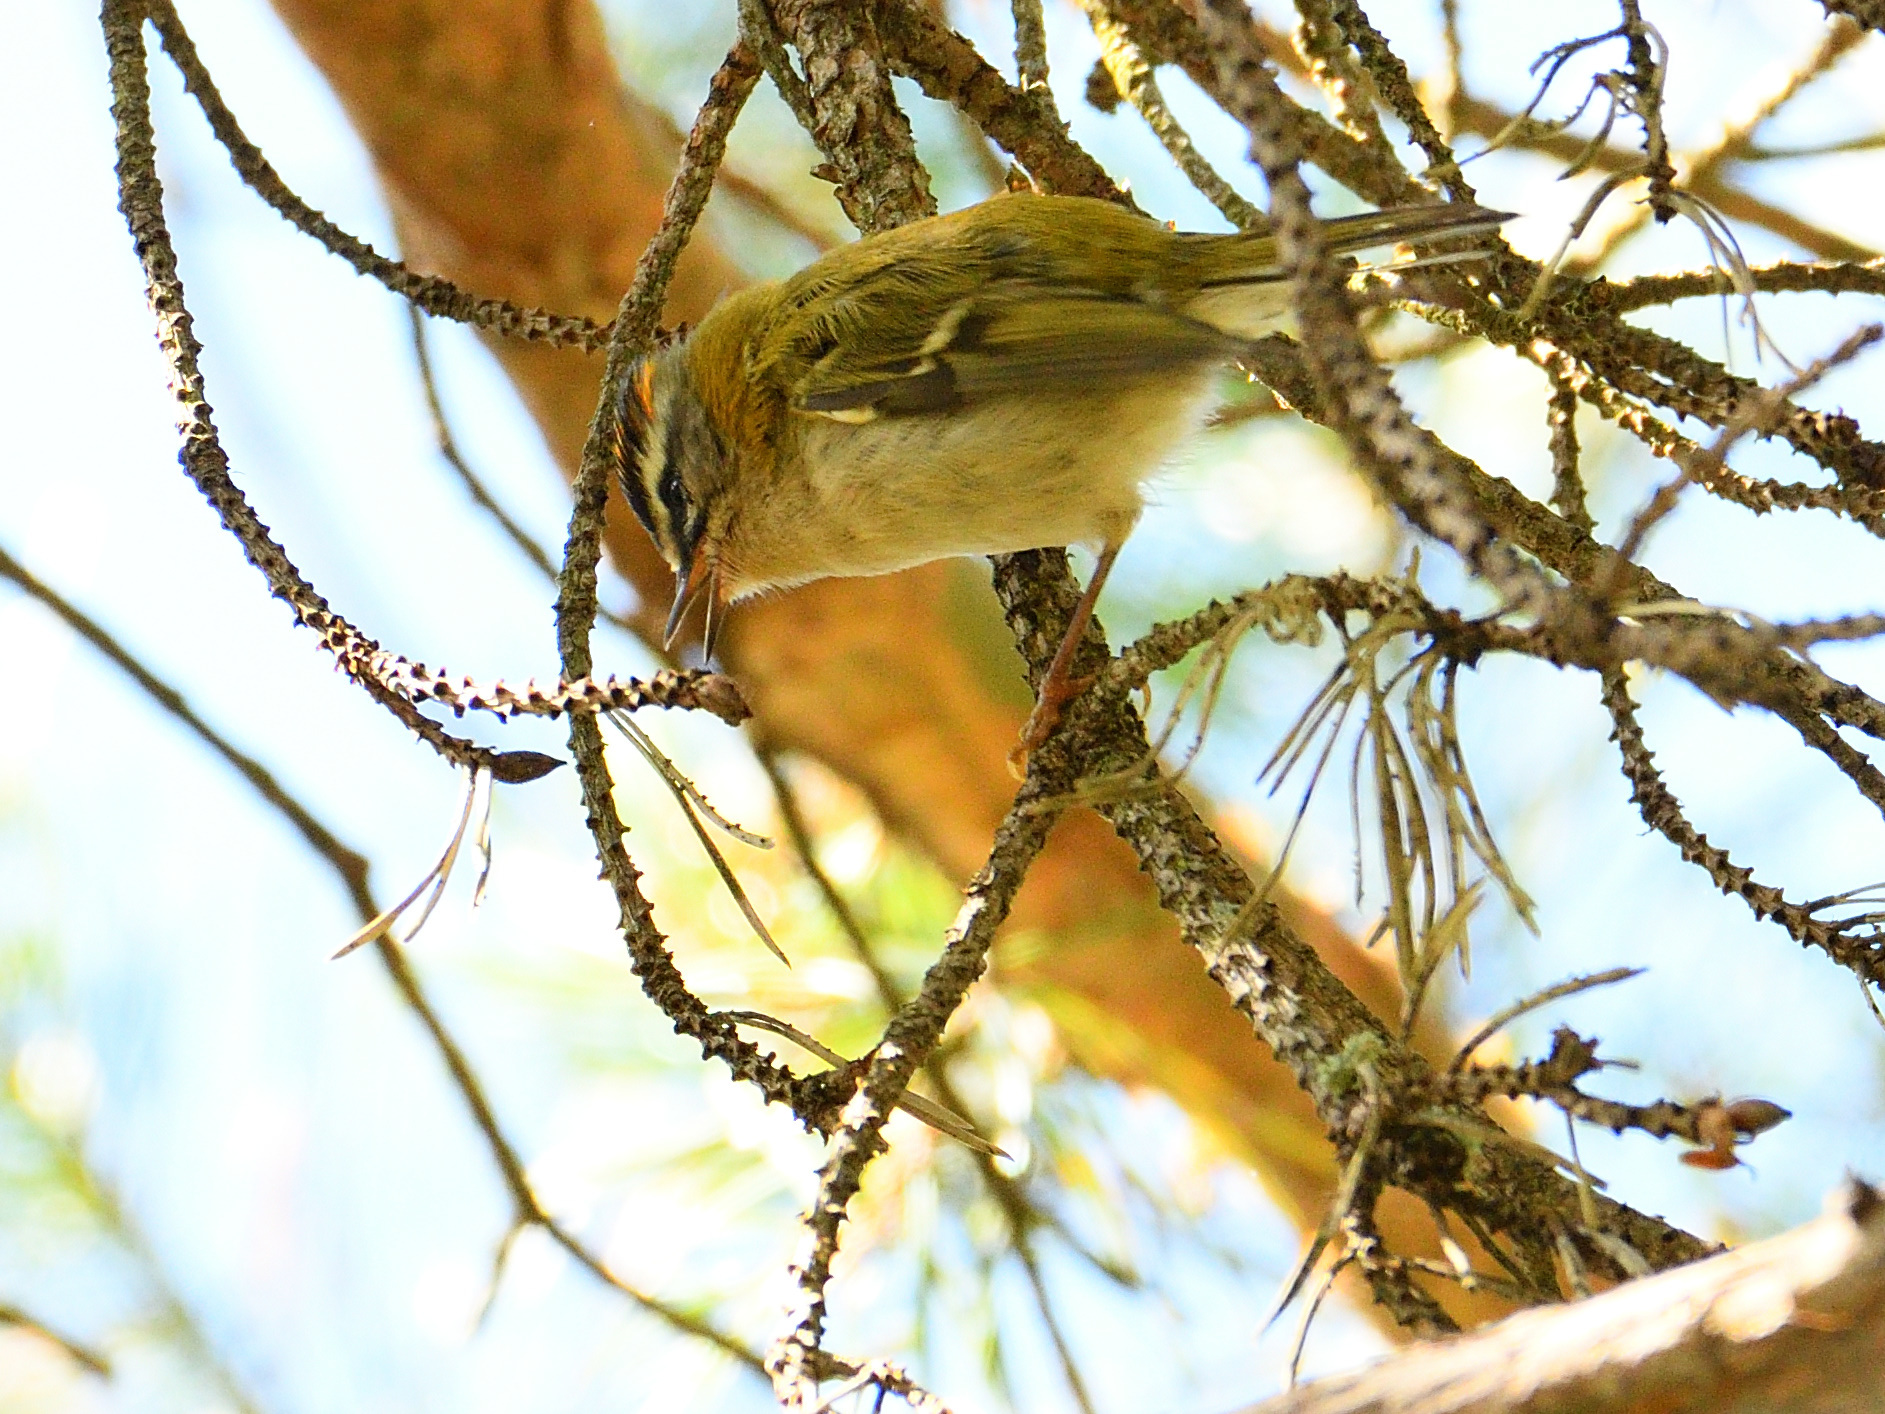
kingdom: Animalia
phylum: Chordata
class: Aves
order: Passeriformes
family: Regulidae
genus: Regulus
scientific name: Regulus ignicapilla
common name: Firecrest
